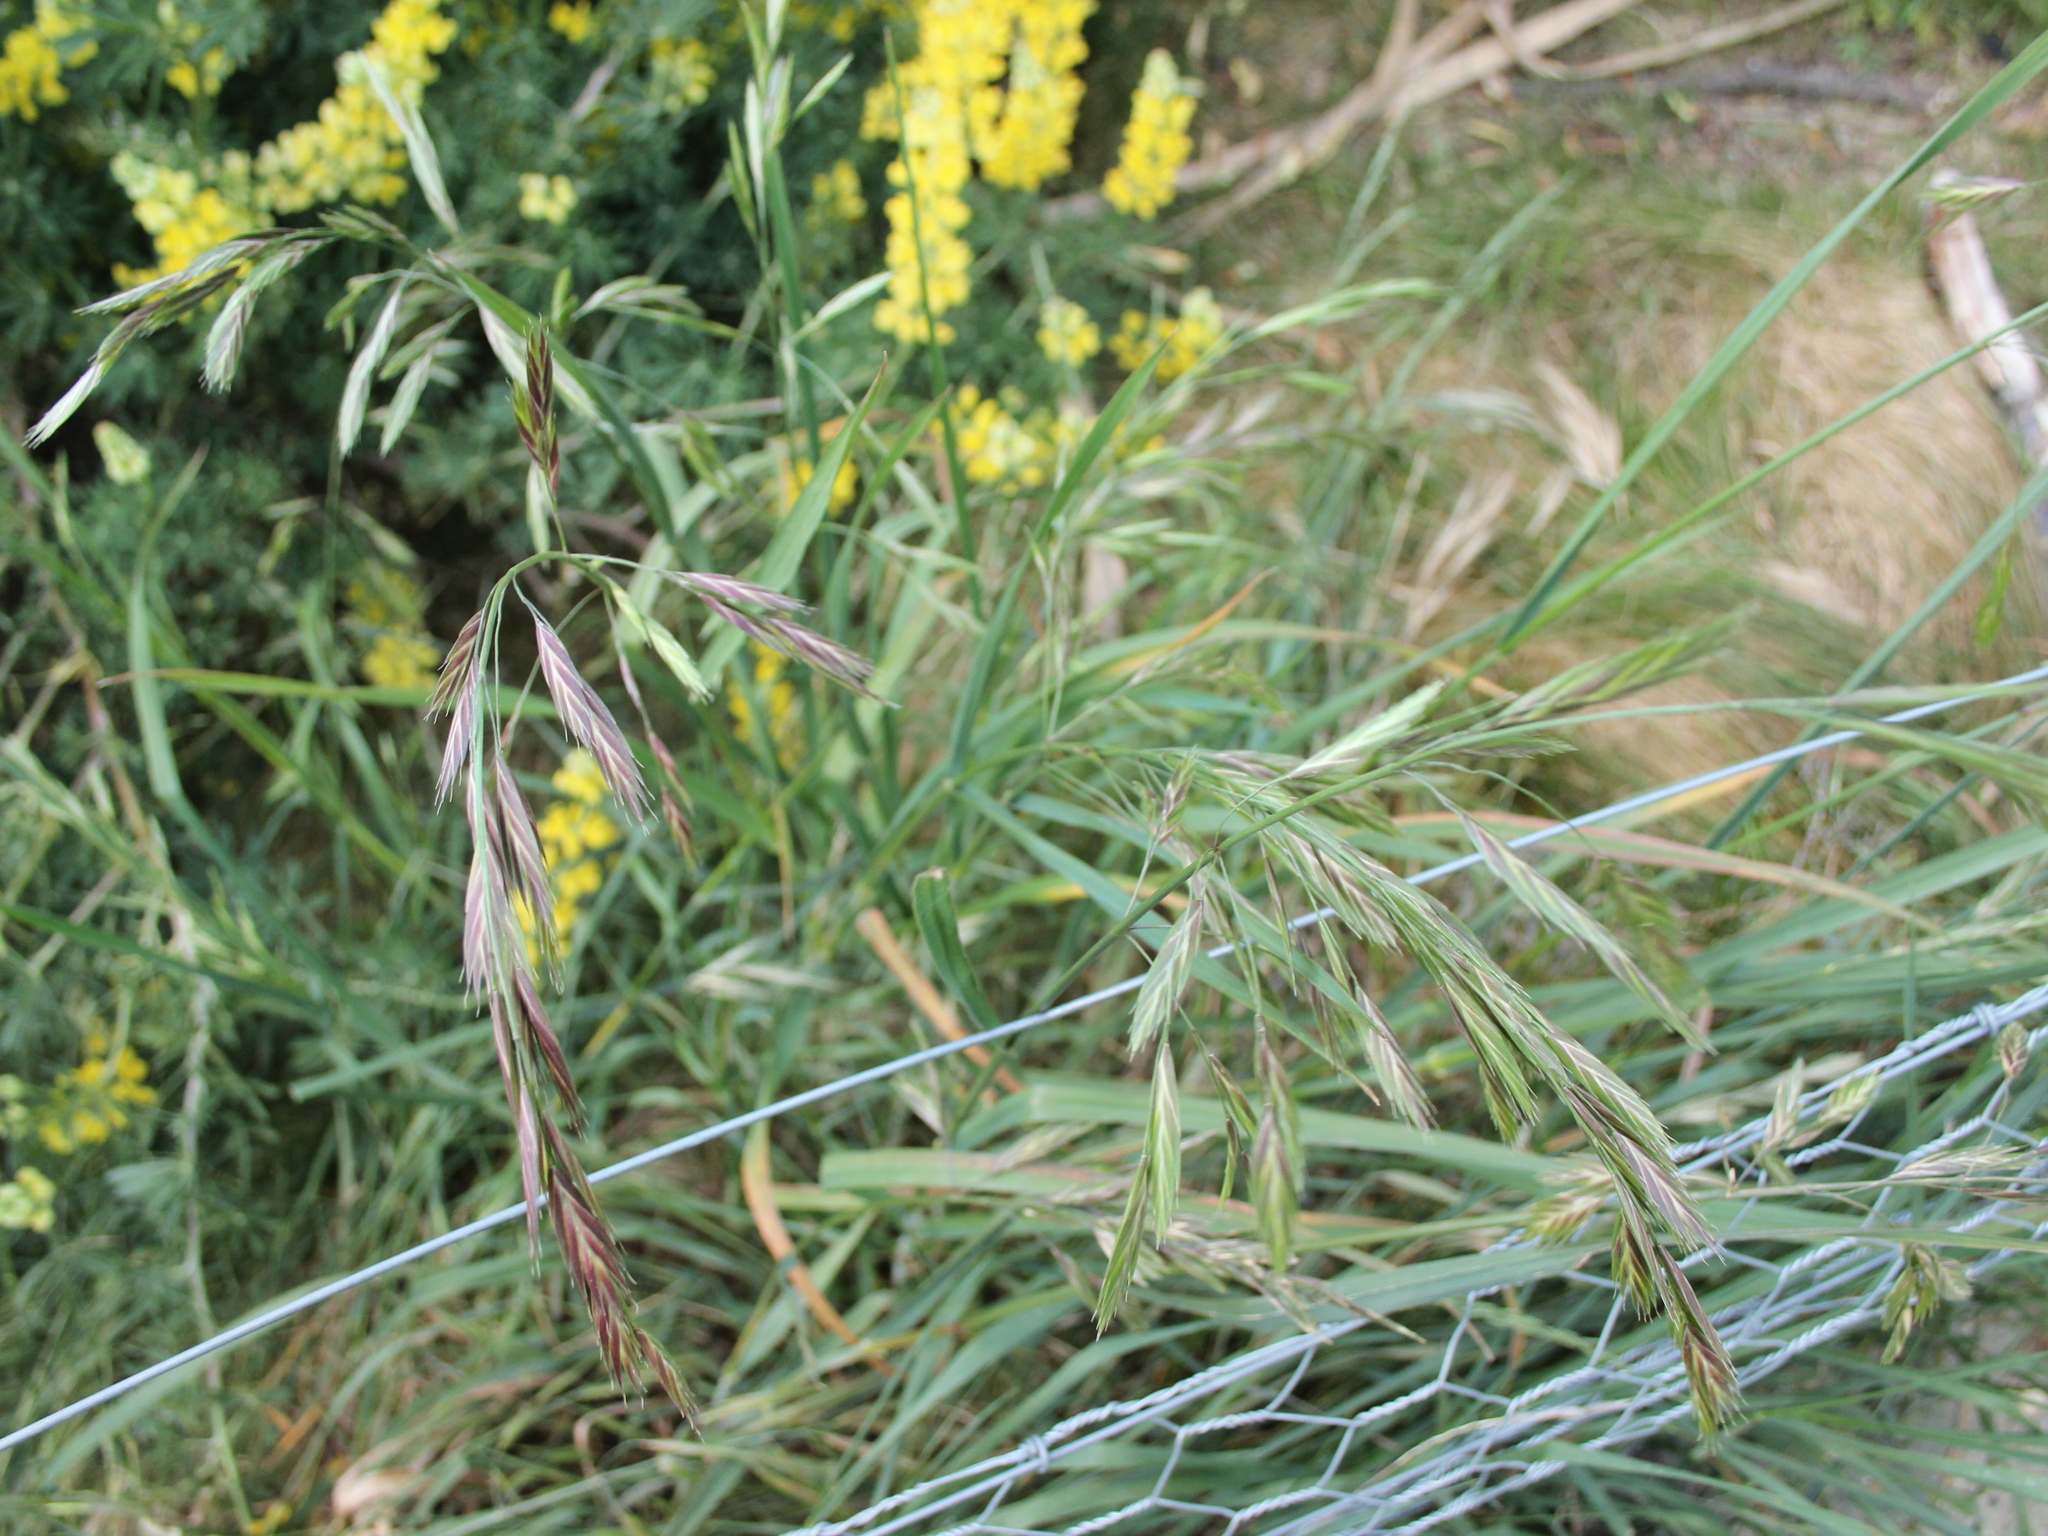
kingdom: Plantae
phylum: Tracheophyta
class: Liliopsida
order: Poales
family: Poaceae
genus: Bromus
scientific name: Bromus catharticus
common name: Rescuegrass
